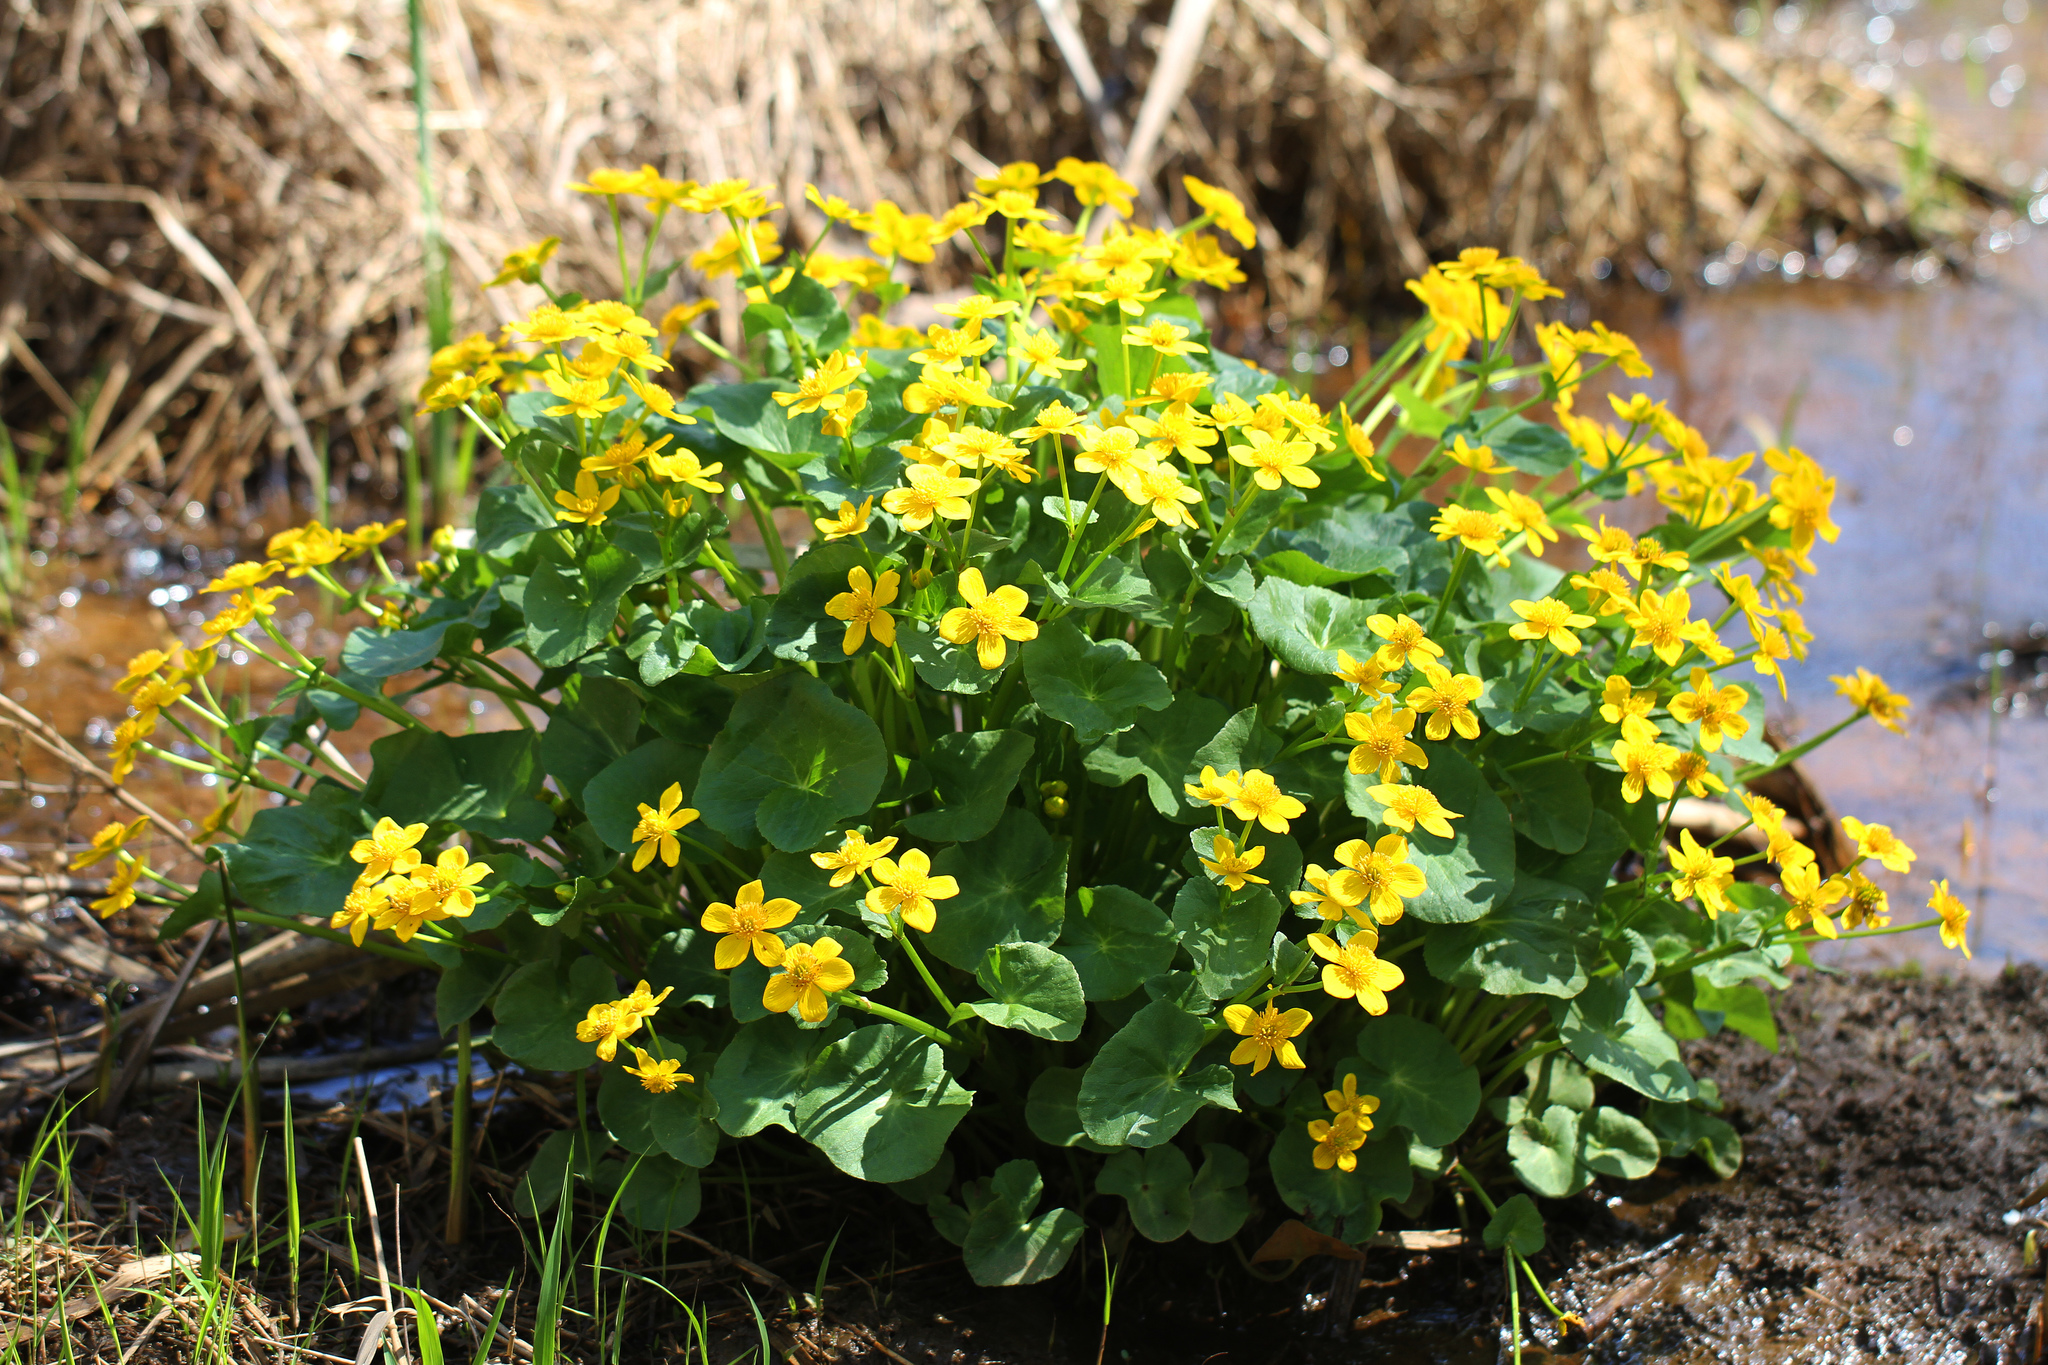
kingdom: Plantae
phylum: Tracheophyta
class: Magnoliopsida
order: Ranunculales
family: Ranunculaceae
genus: Caltha
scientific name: Caltha palustris
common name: Marsh marigold
